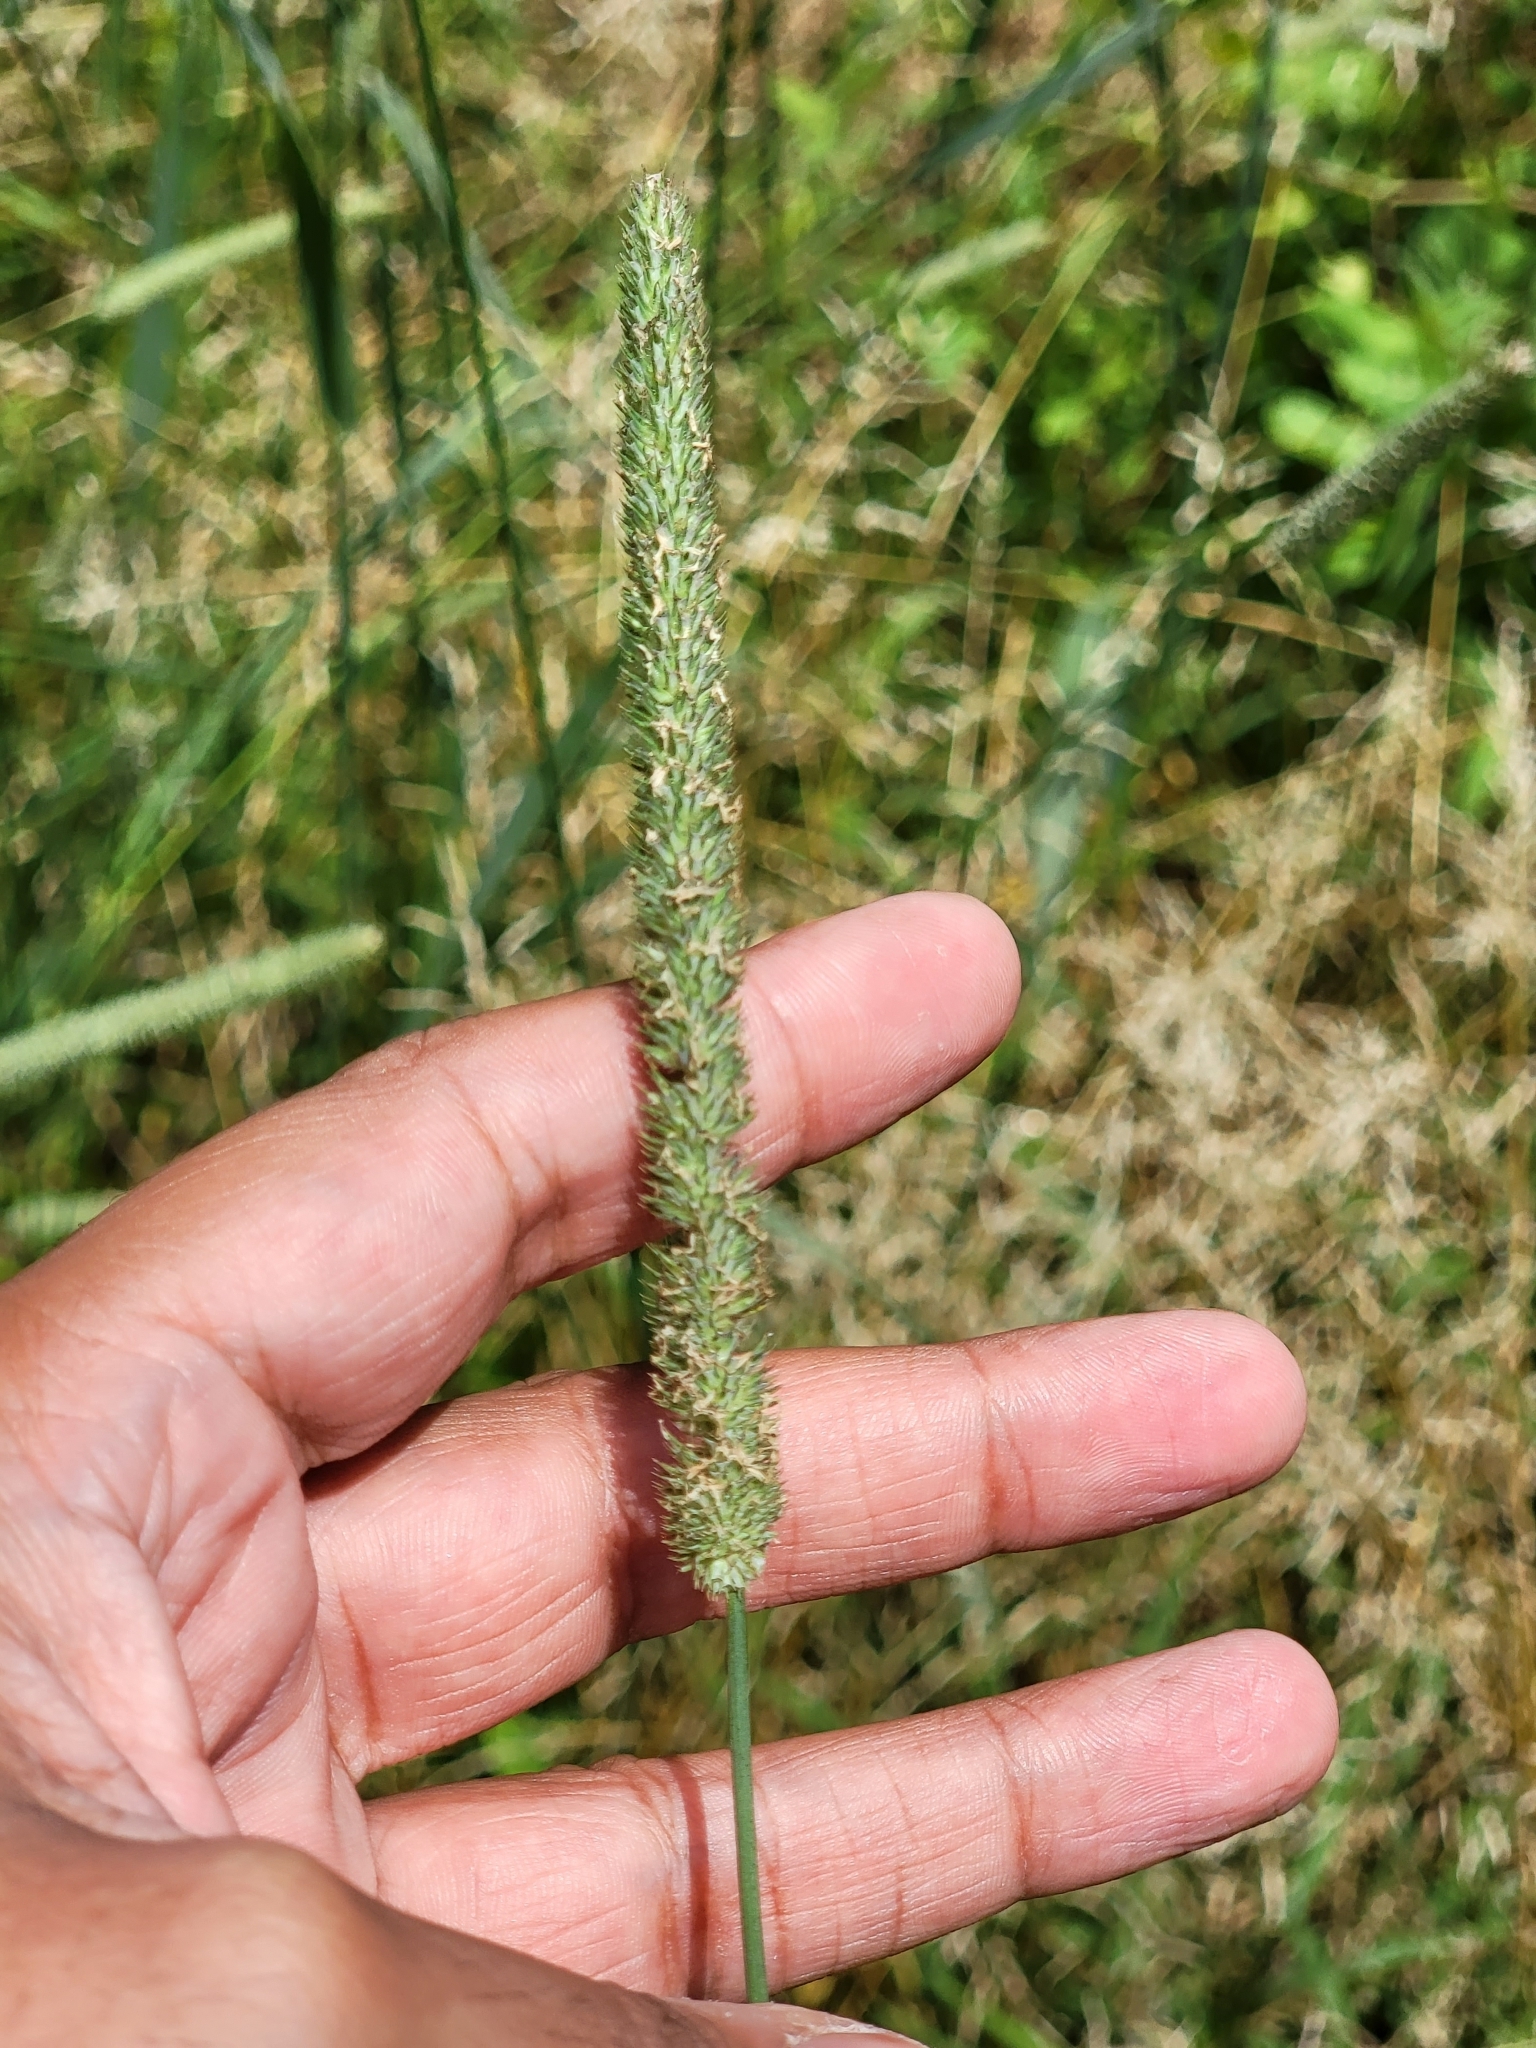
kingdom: Plantae
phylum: Tracheophyta
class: Liliopsida
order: Poales
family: Poaceae
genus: Phleum
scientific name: Phleum pratense
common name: Timothy grass
